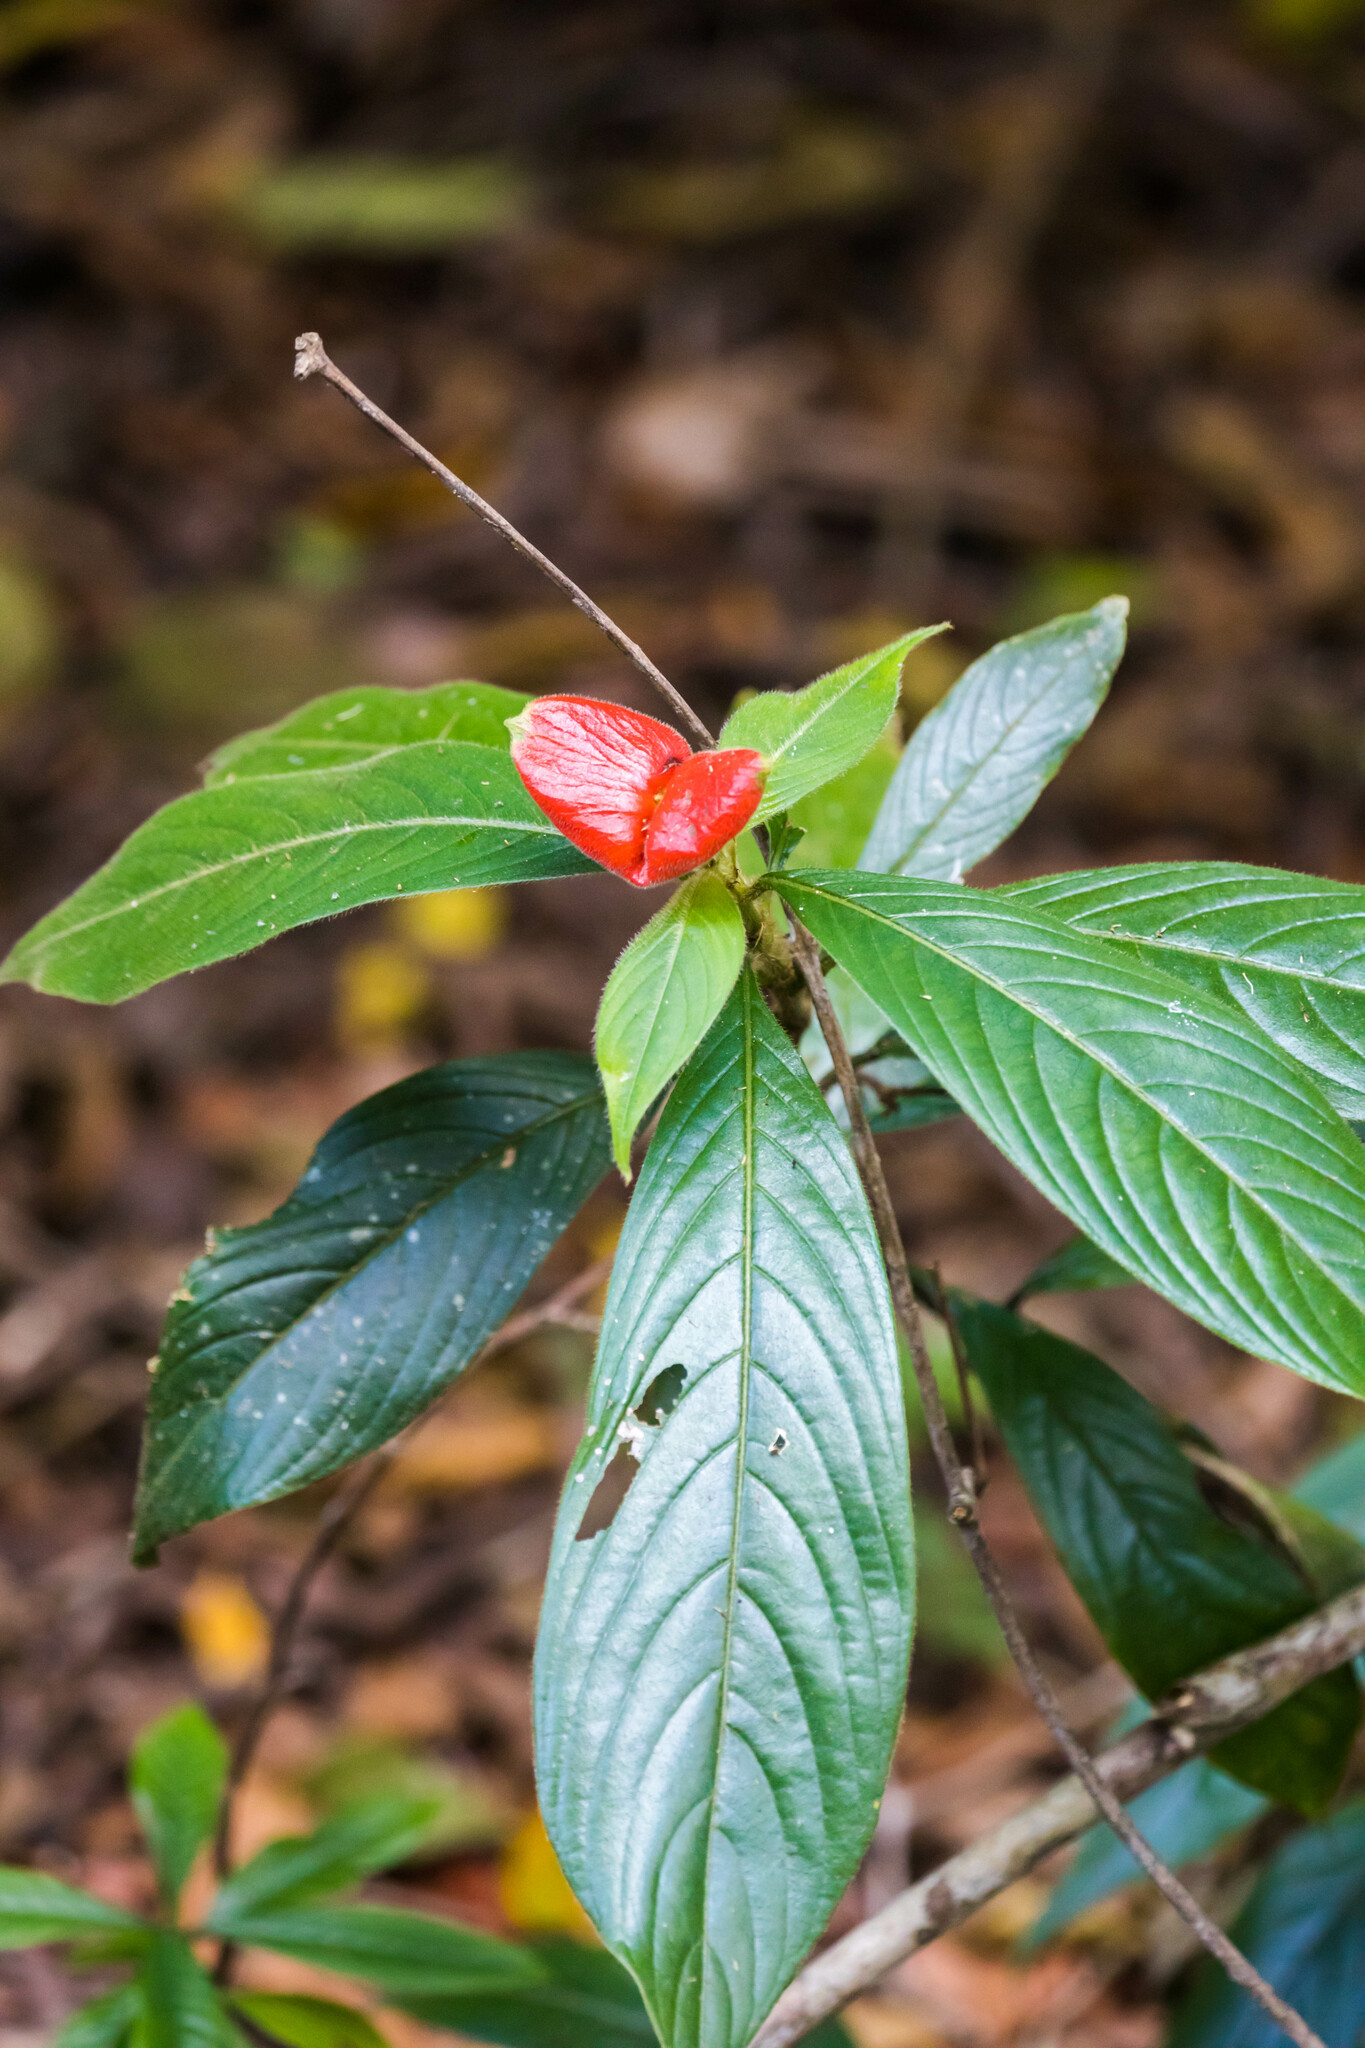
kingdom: Plantae
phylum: Tracheophyta
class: Magnoliopsida
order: Gentianales
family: Rubiaceae
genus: Palicourea
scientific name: Palicourea tomentosa
